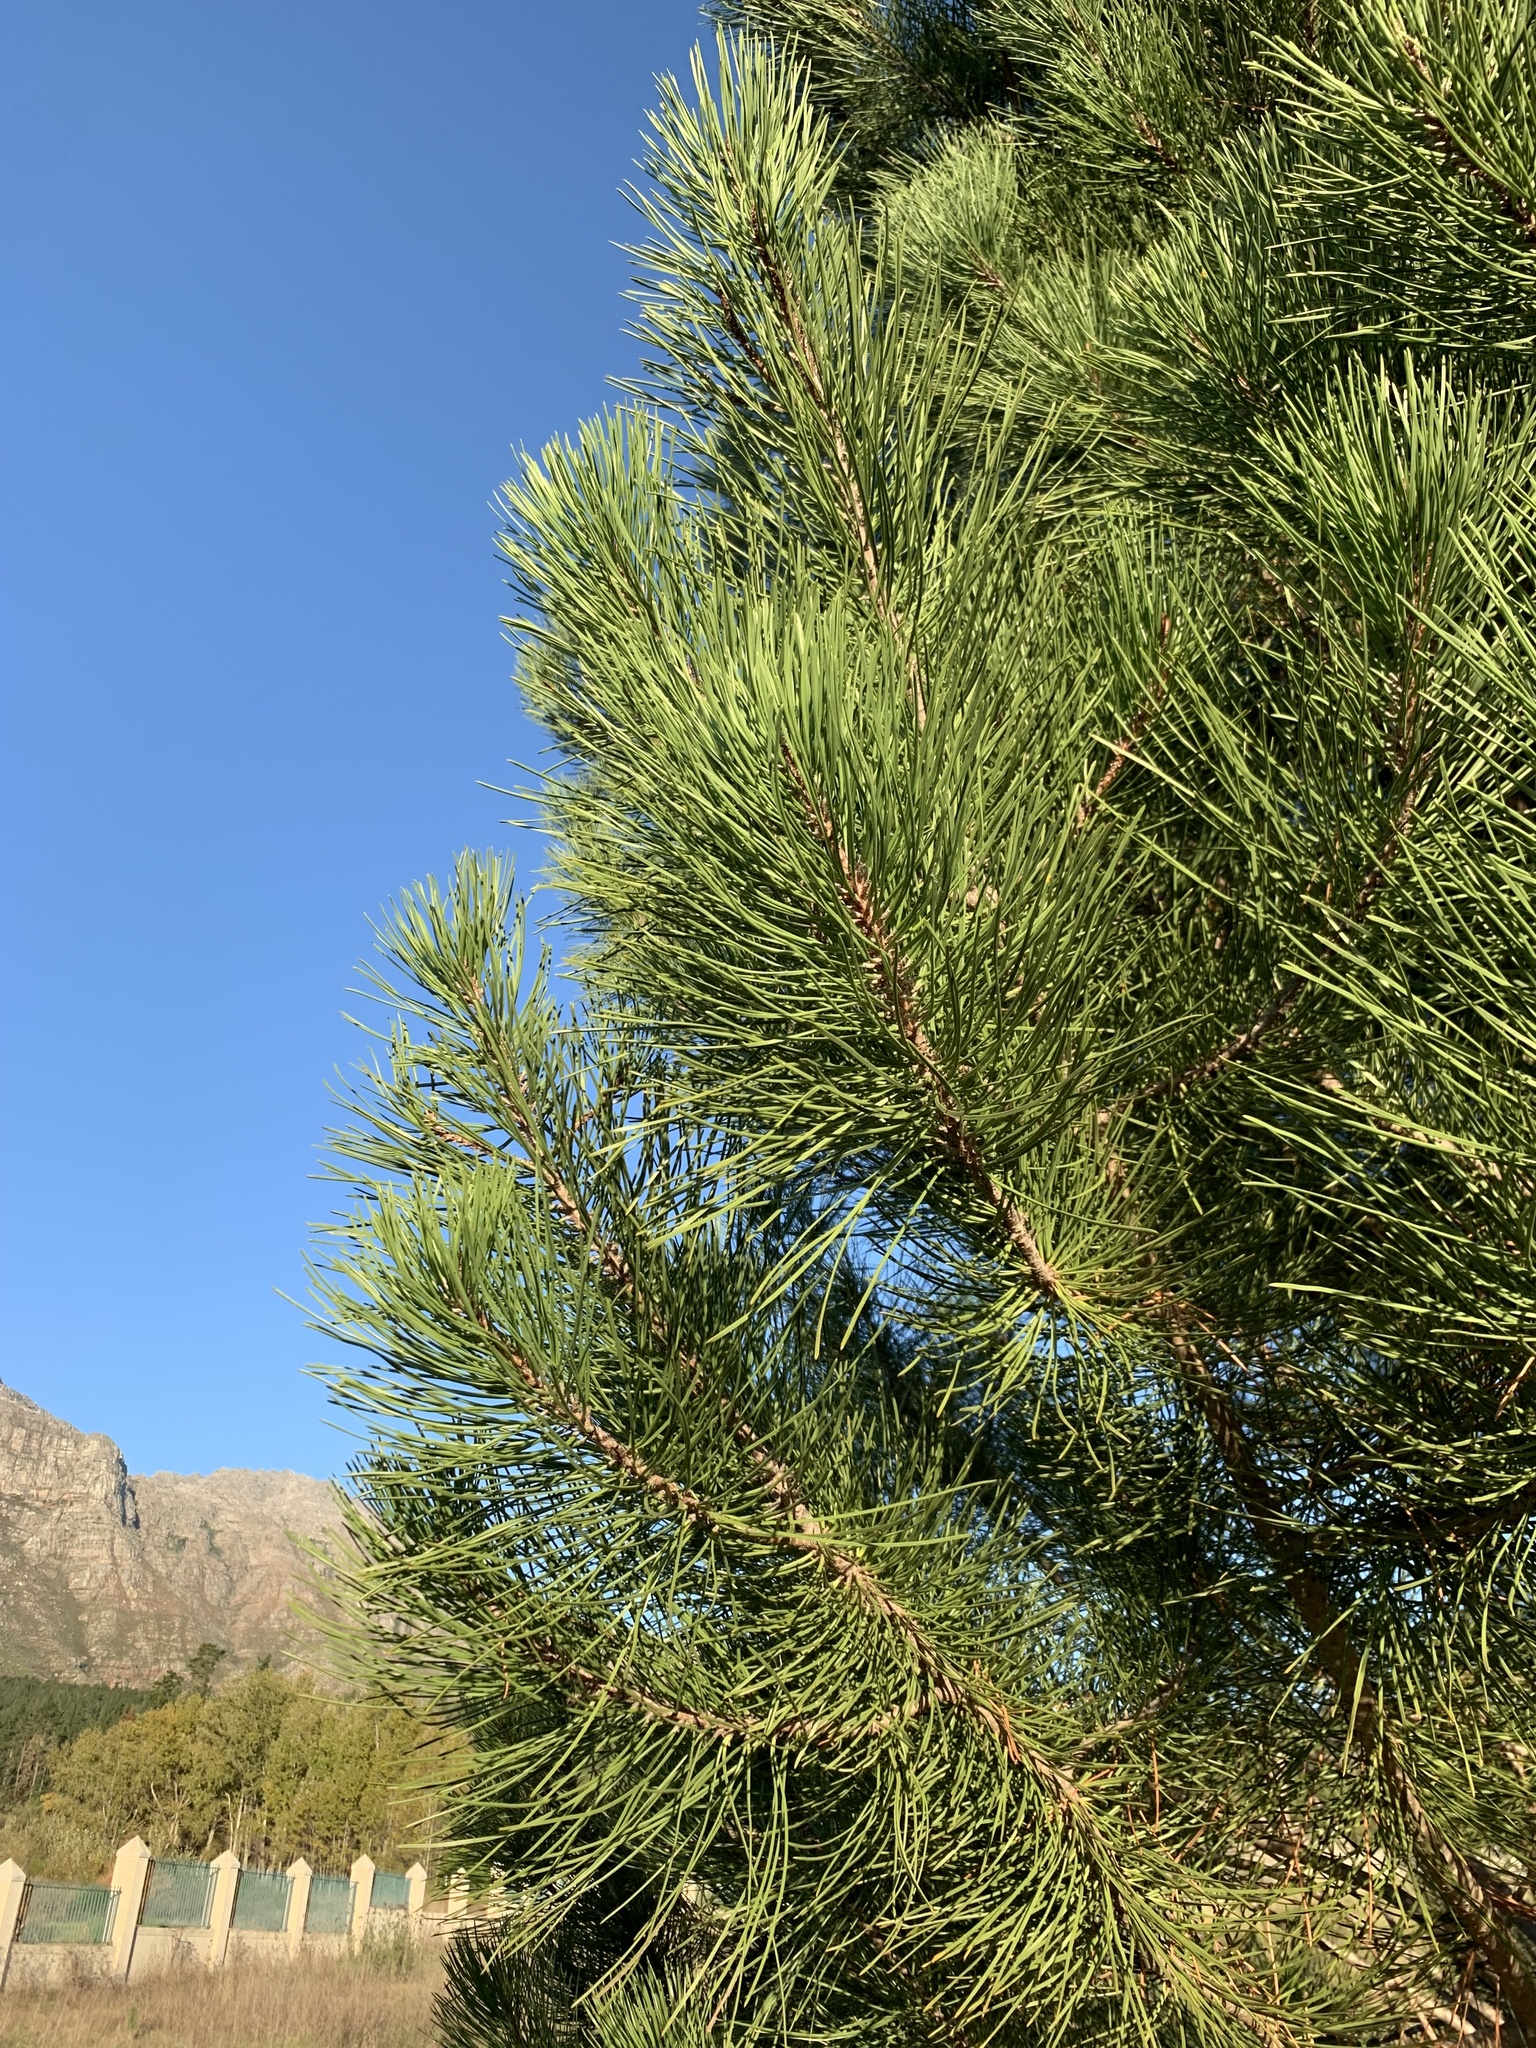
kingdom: Plantae
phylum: Tracheophyta
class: Pinopsida
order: Pinales
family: Pinaceae
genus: Pinus
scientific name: Pinus pinaster
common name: Maritime pine
